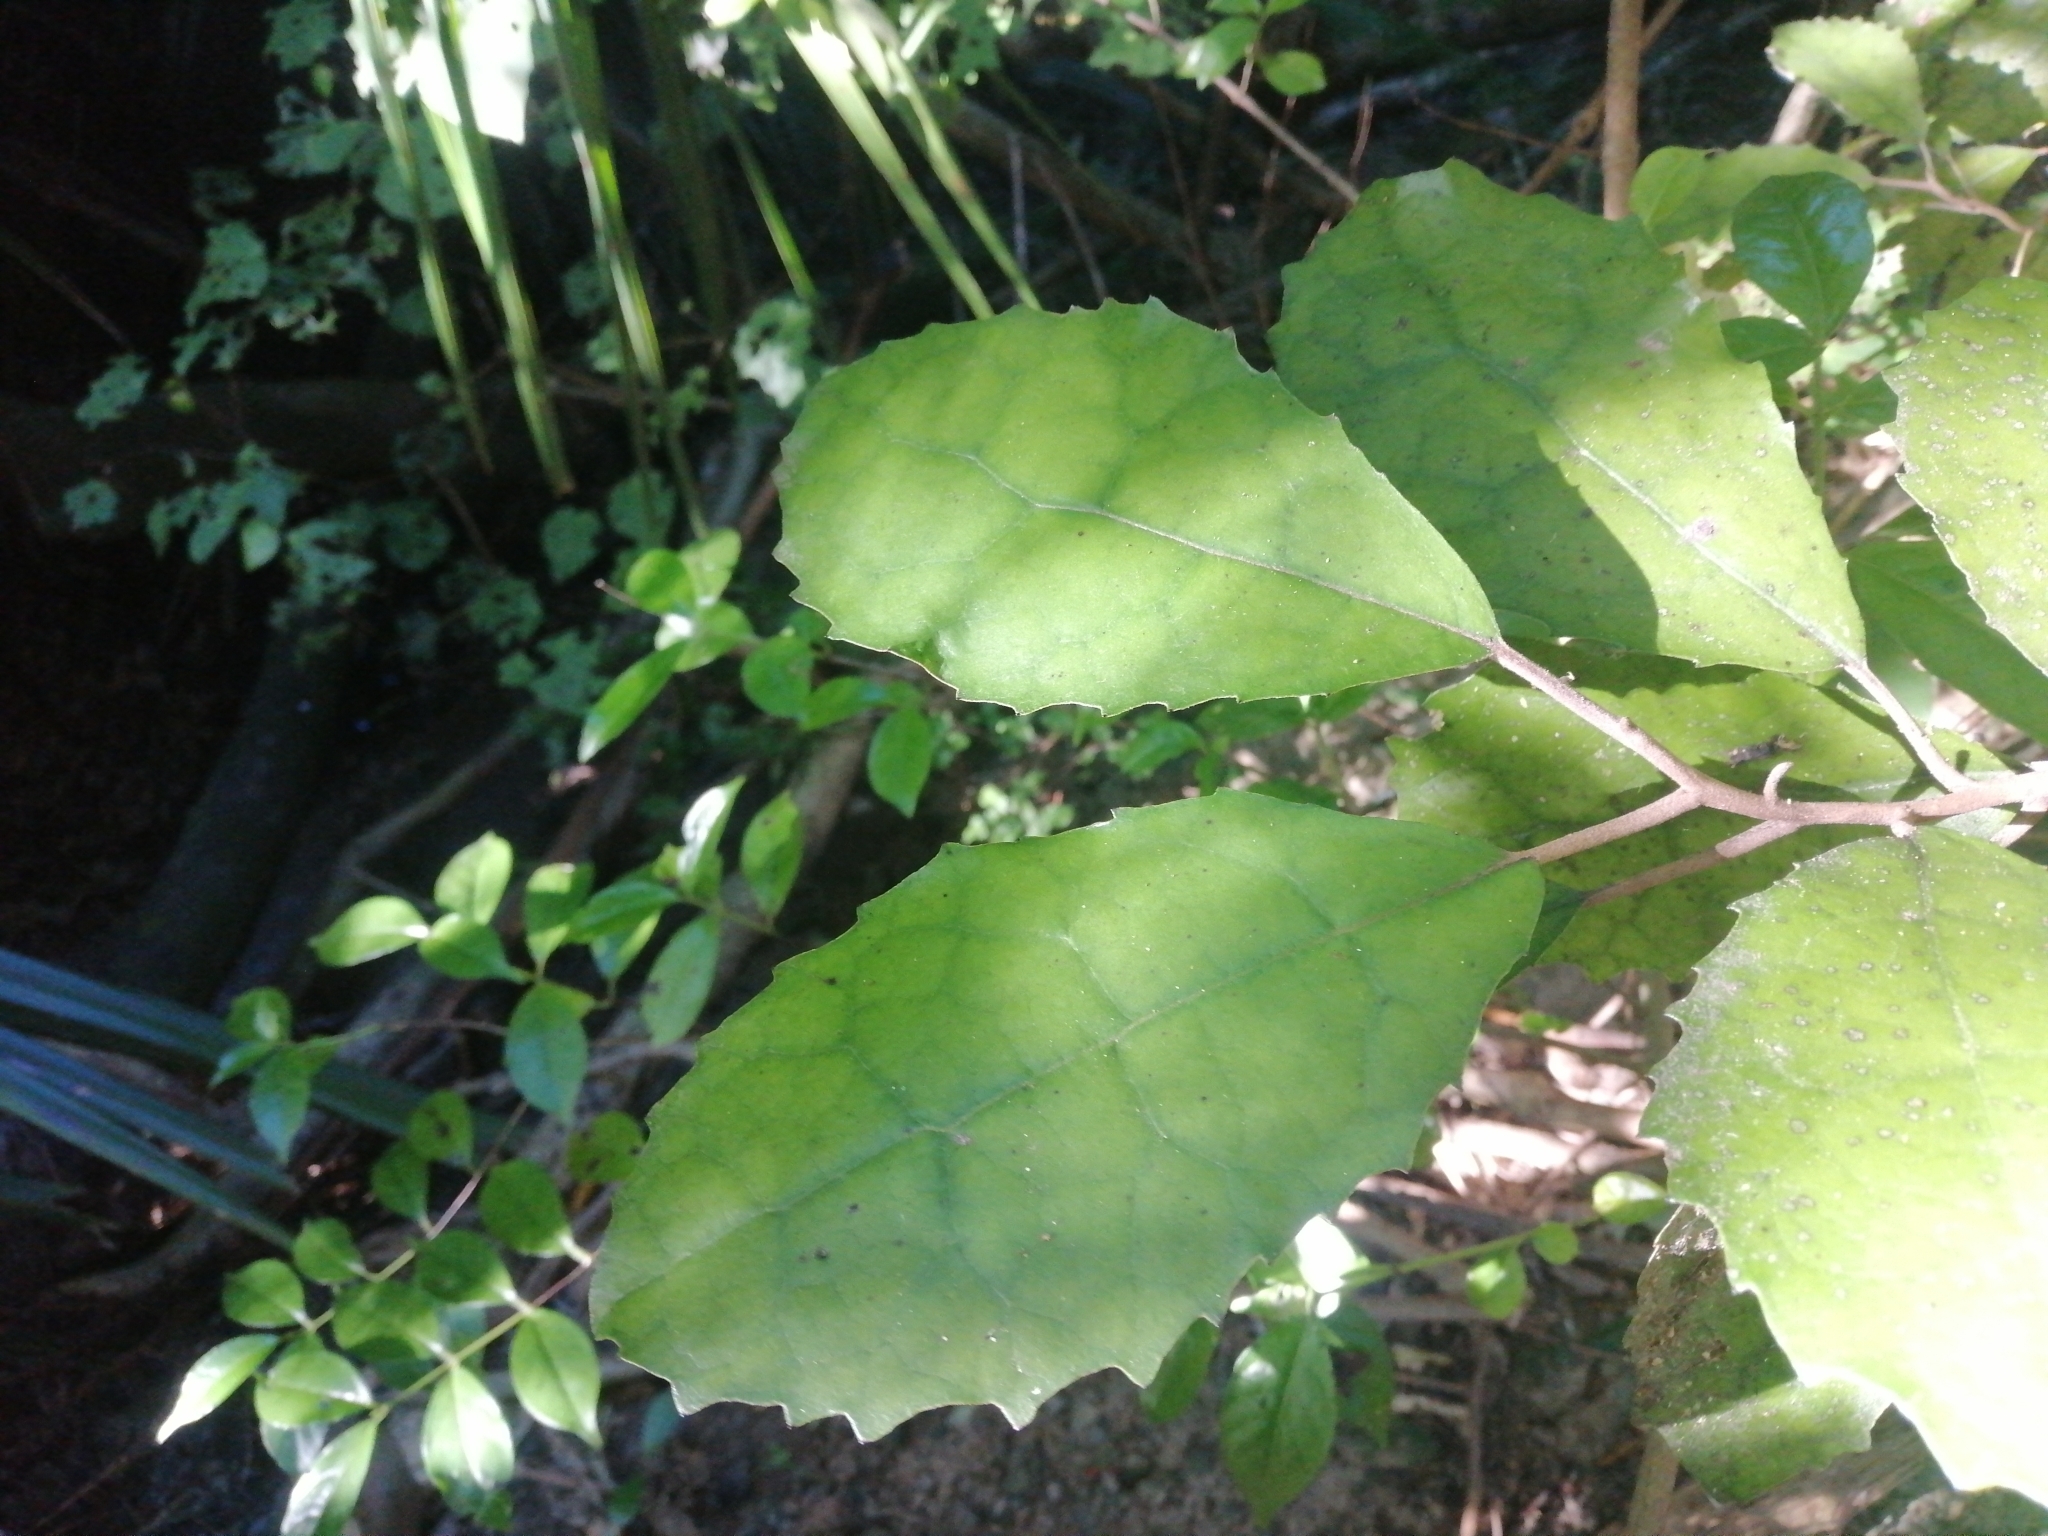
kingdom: Plantae
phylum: Tracheophyta
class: Magnoliopsida
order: Asterales
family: Asteraceae
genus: Olearia
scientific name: Olearia rani
